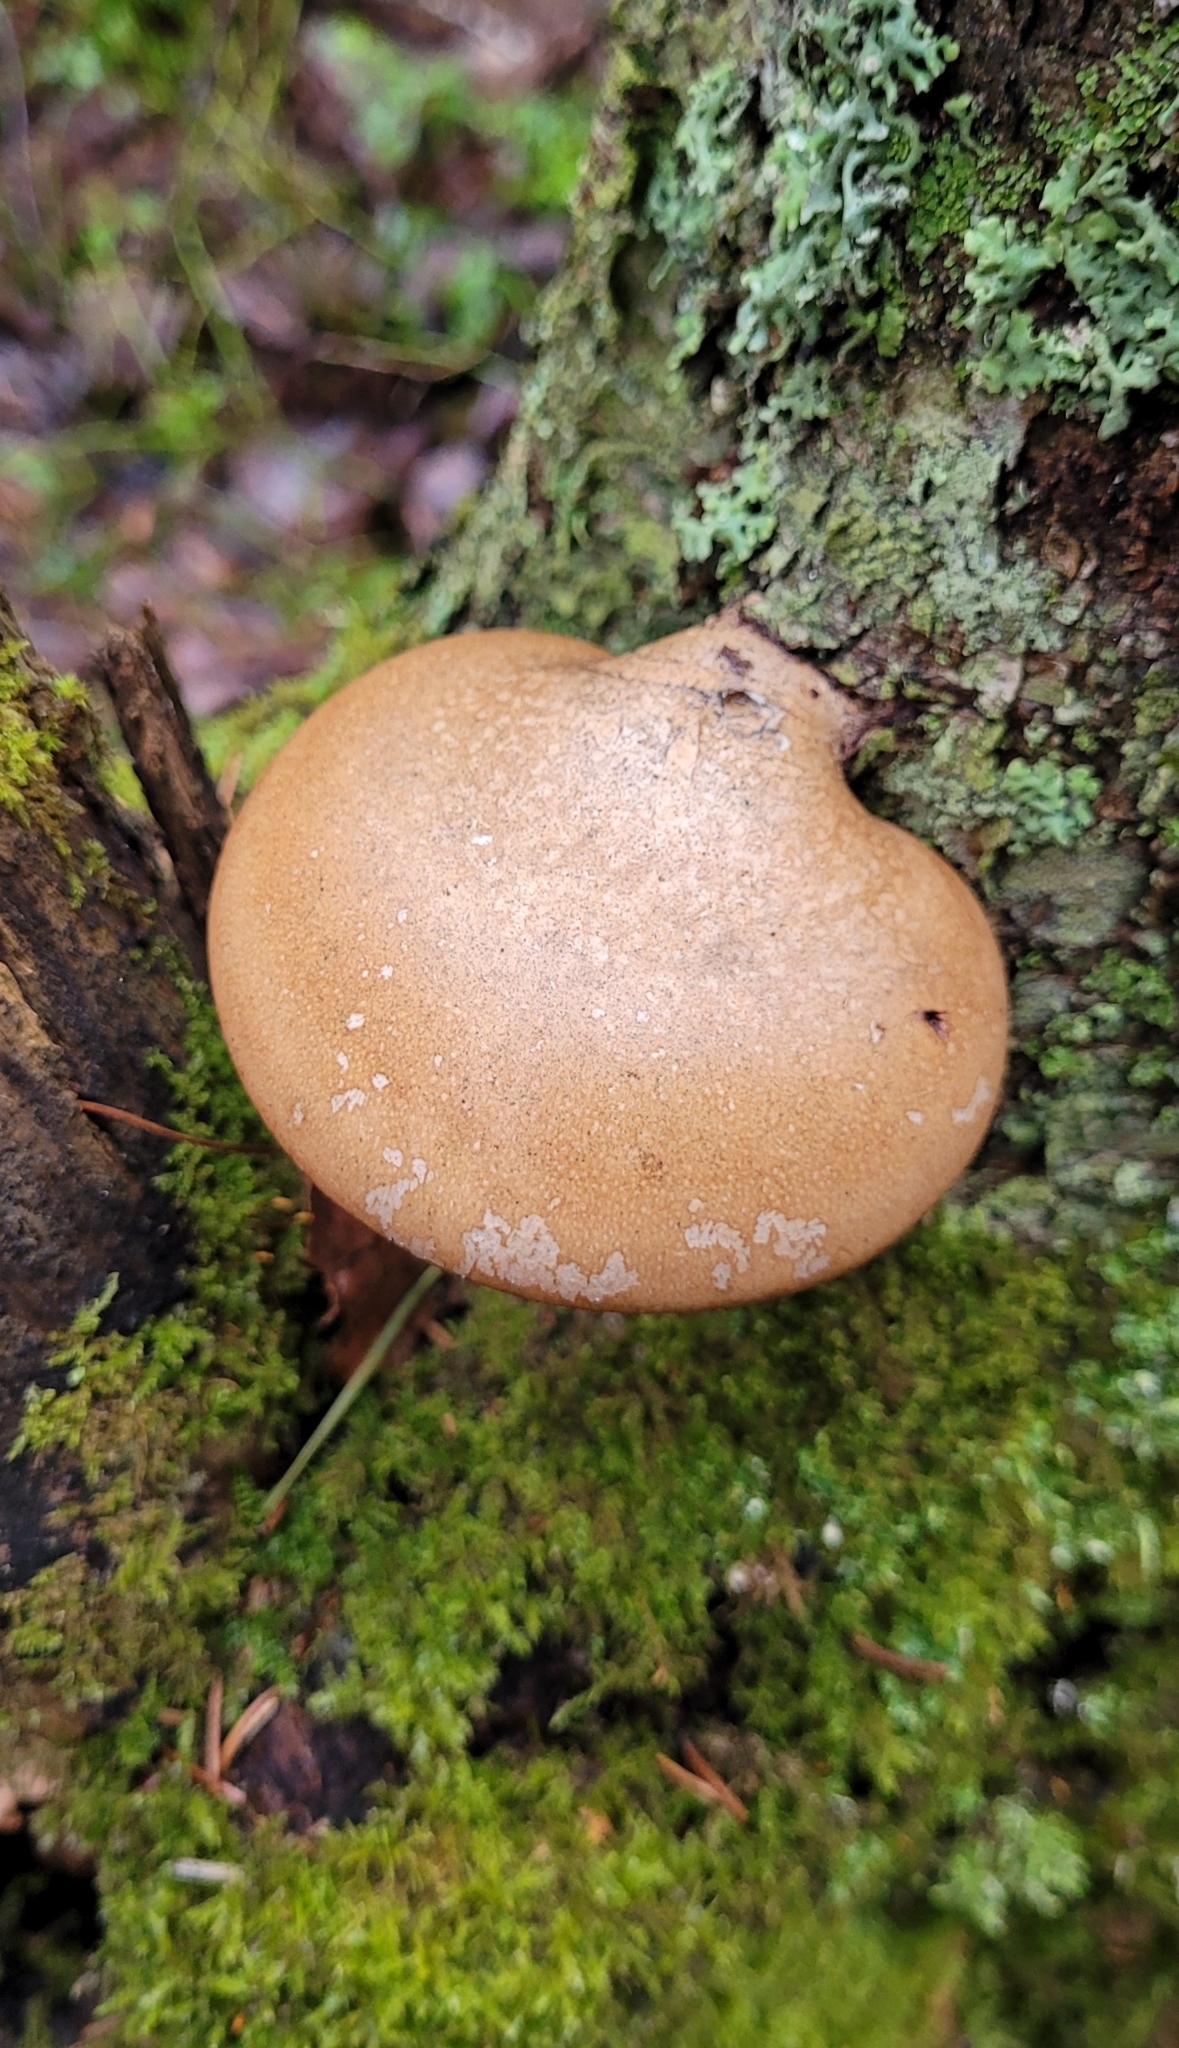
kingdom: Fungi
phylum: Basidiomycota
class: Agaricomycetes
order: Polyporales
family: Fomitopsidaceae
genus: Fomitopsis
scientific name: Fomitopsis betulina
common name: Birch polypore
